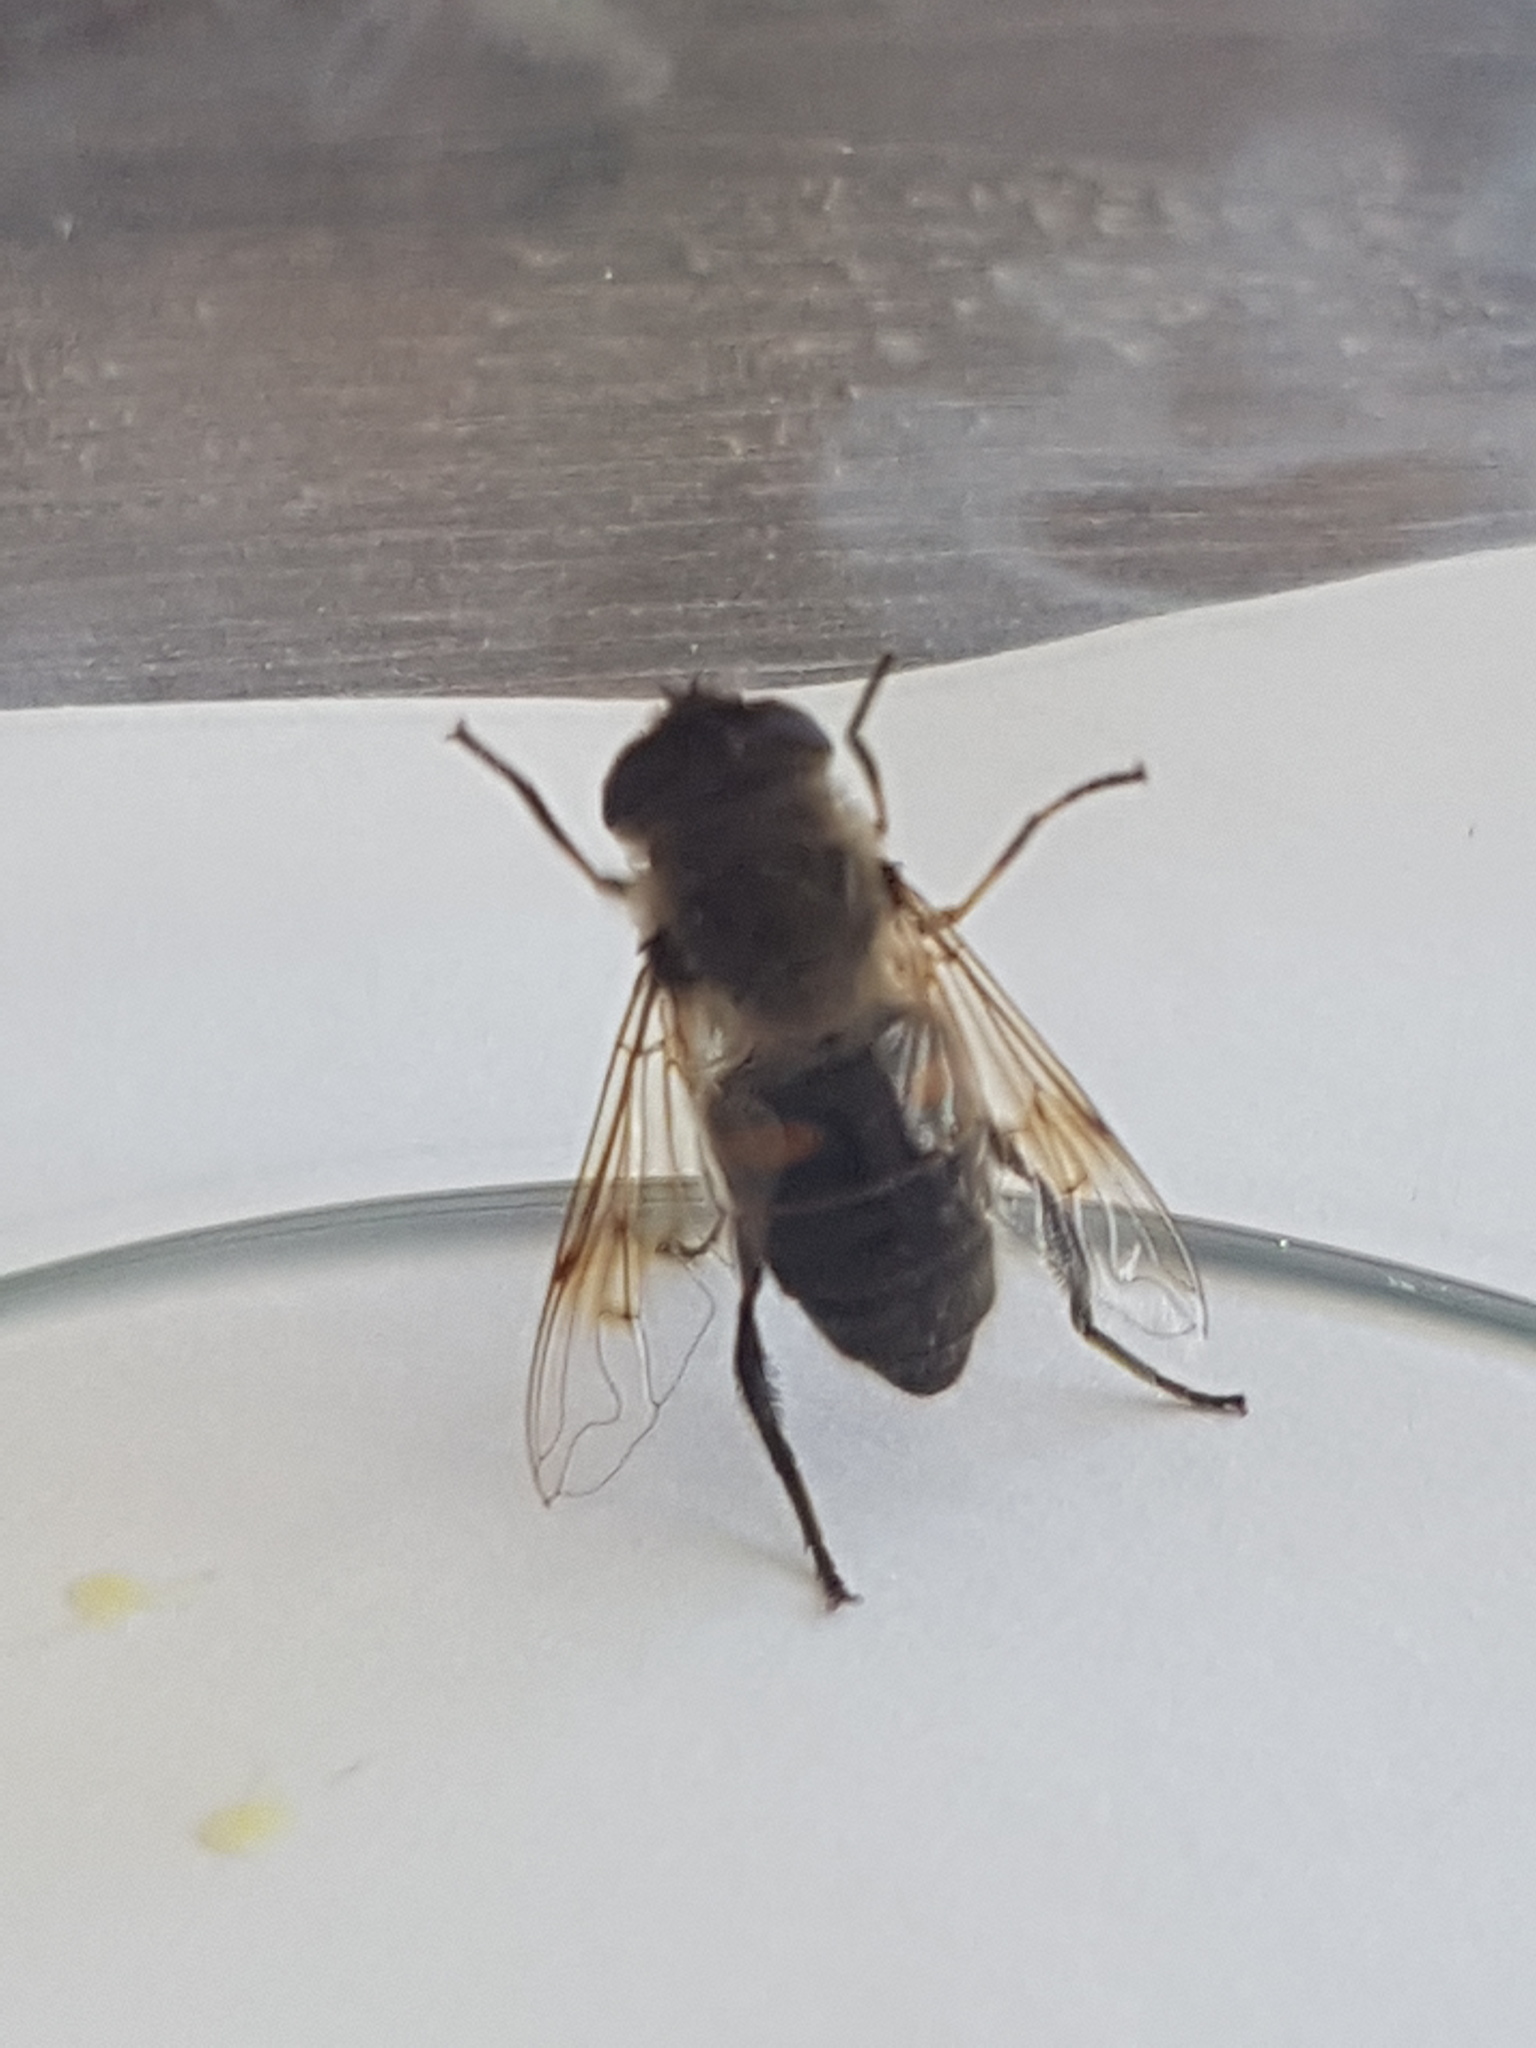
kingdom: Animalia
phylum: Arthropoda
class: Insecta
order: Diptera
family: Syrphidae
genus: Eristalis
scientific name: Eristalis tenax
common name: Drone fly
